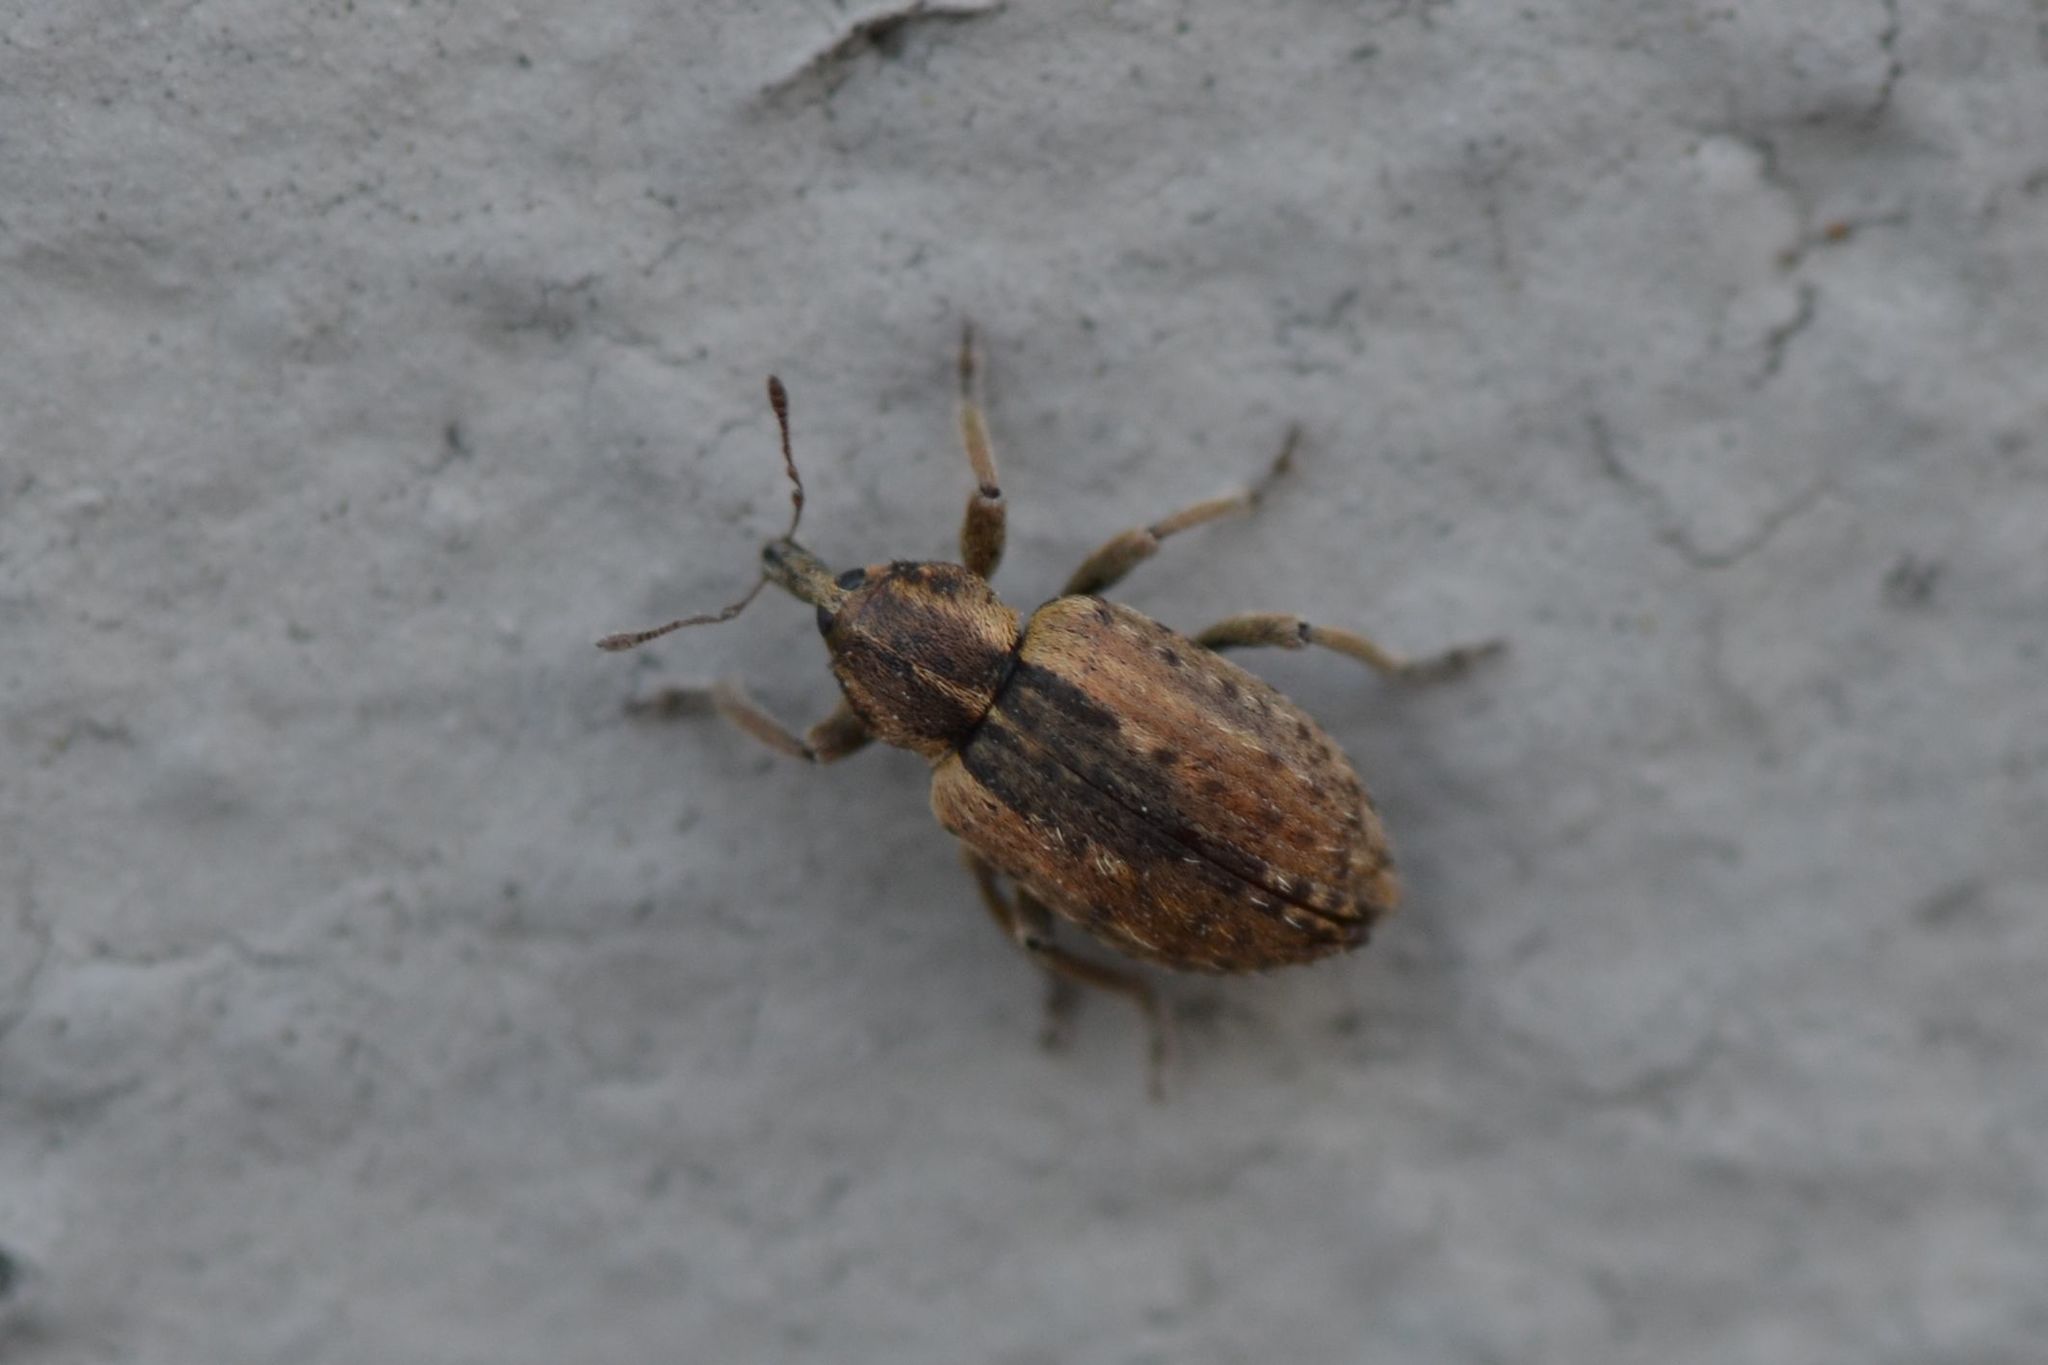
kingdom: Animalia
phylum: Arthropoda
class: Insecta
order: Coleoptera
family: Curculionidae
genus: Hypera
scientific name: Hypera postica
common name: Weevil
